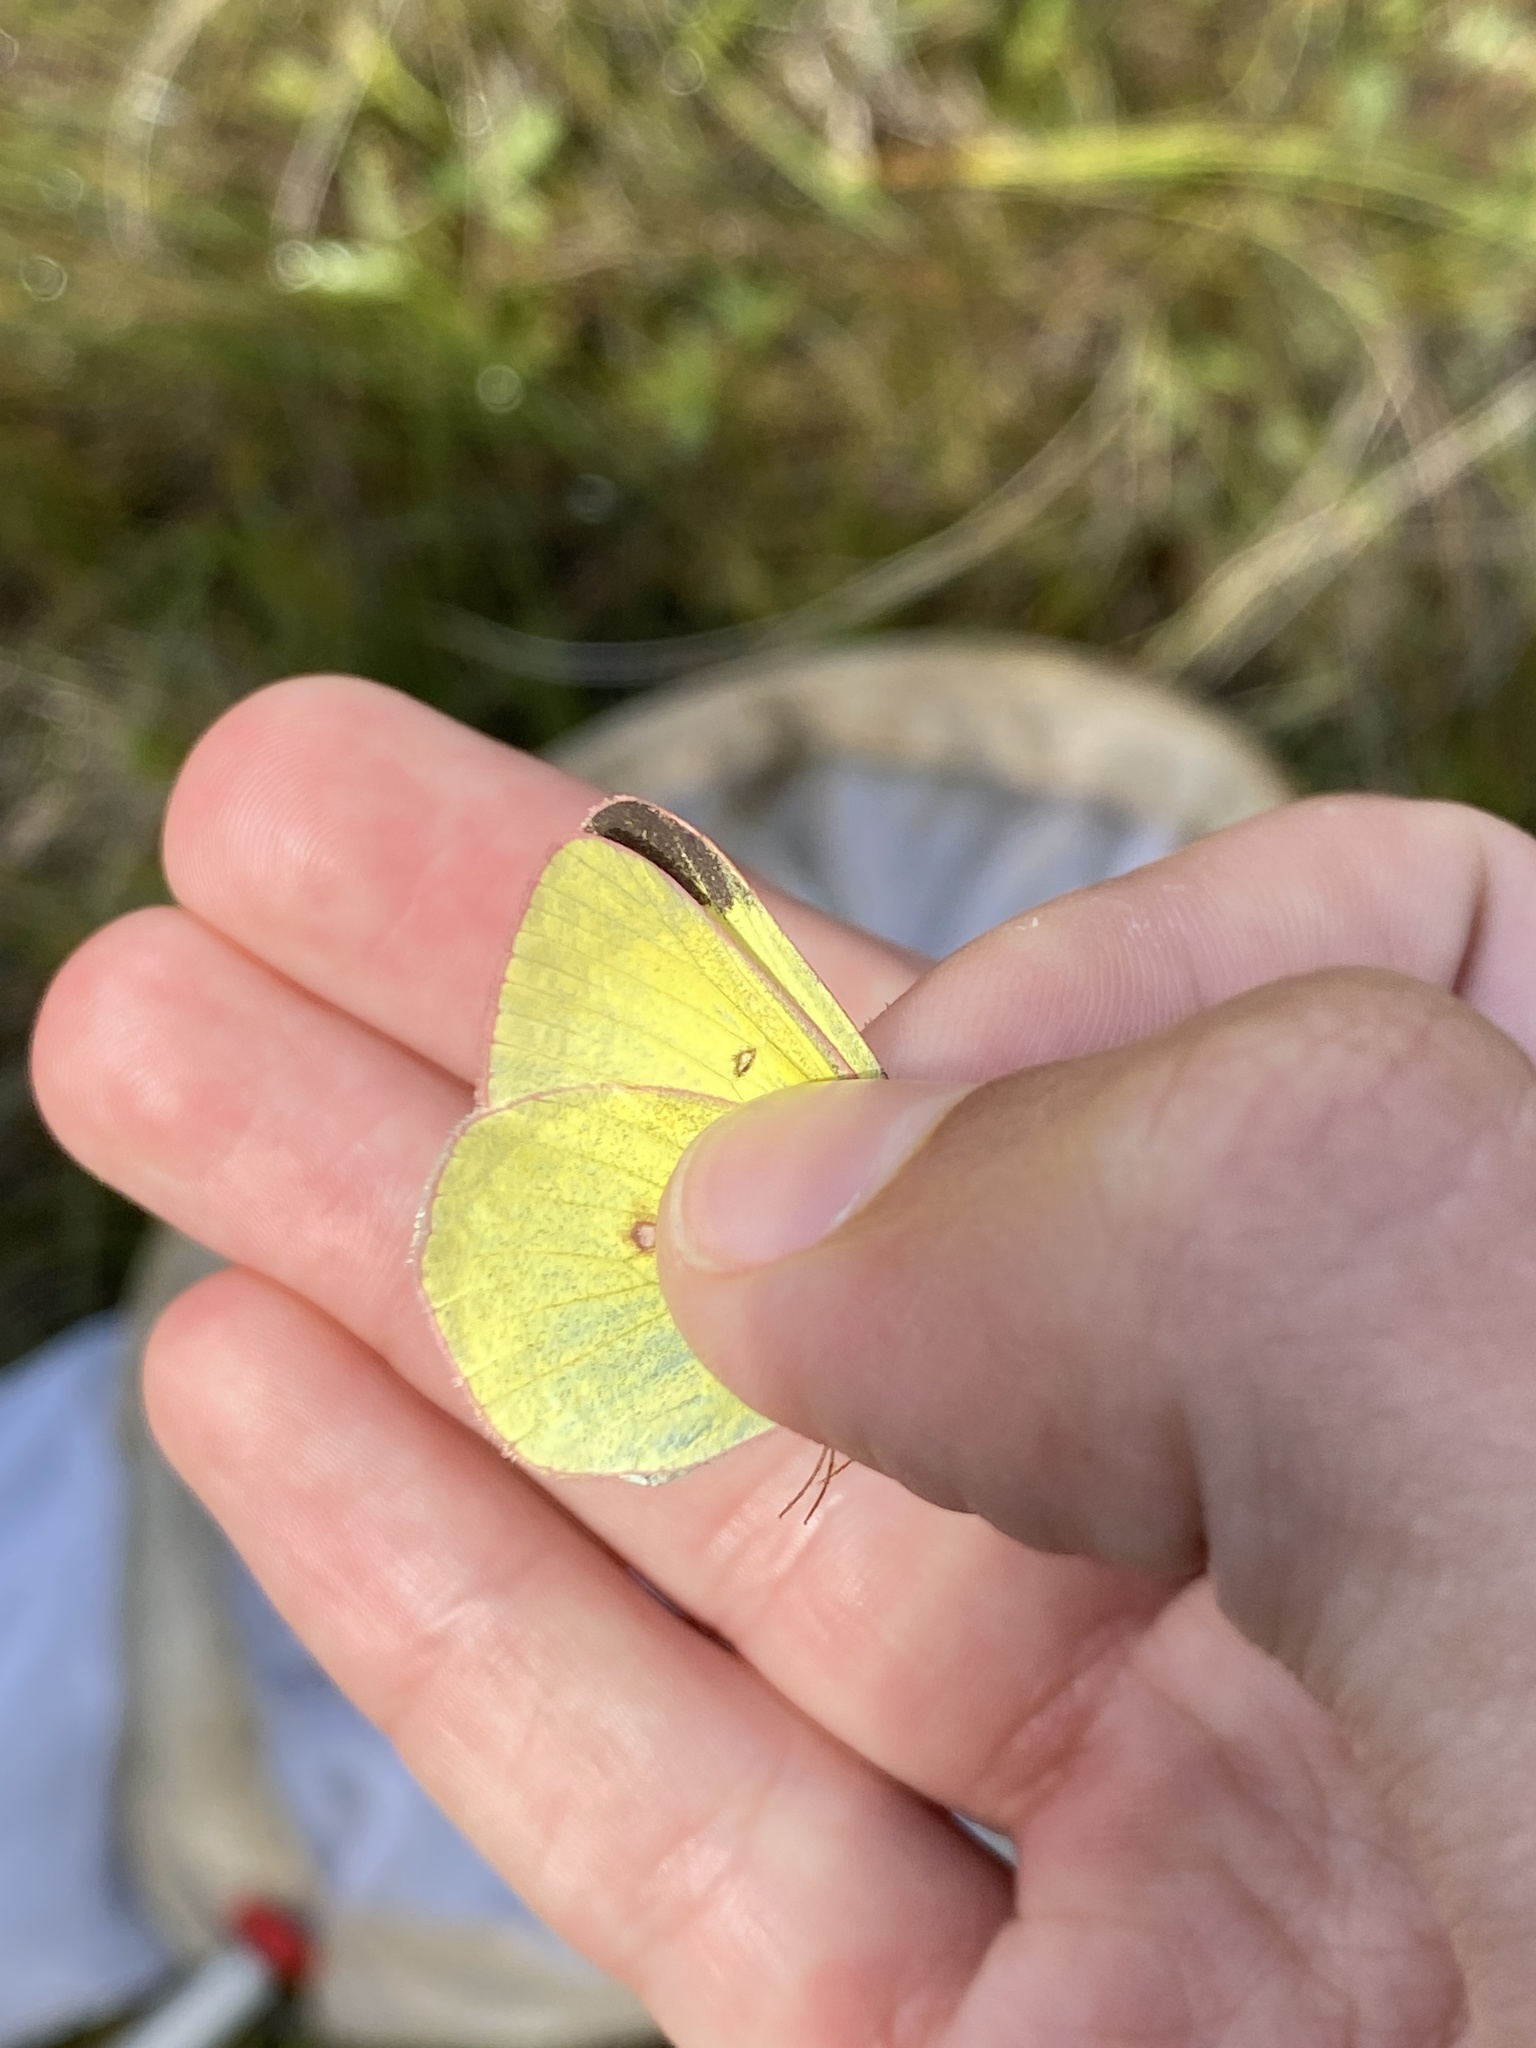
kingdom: Animalia
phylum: Arthropoda
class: Insecta
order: Lepidoptera
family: Pieridae
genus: Colias
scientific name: Colias interior
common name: Pink-edged sulphur
